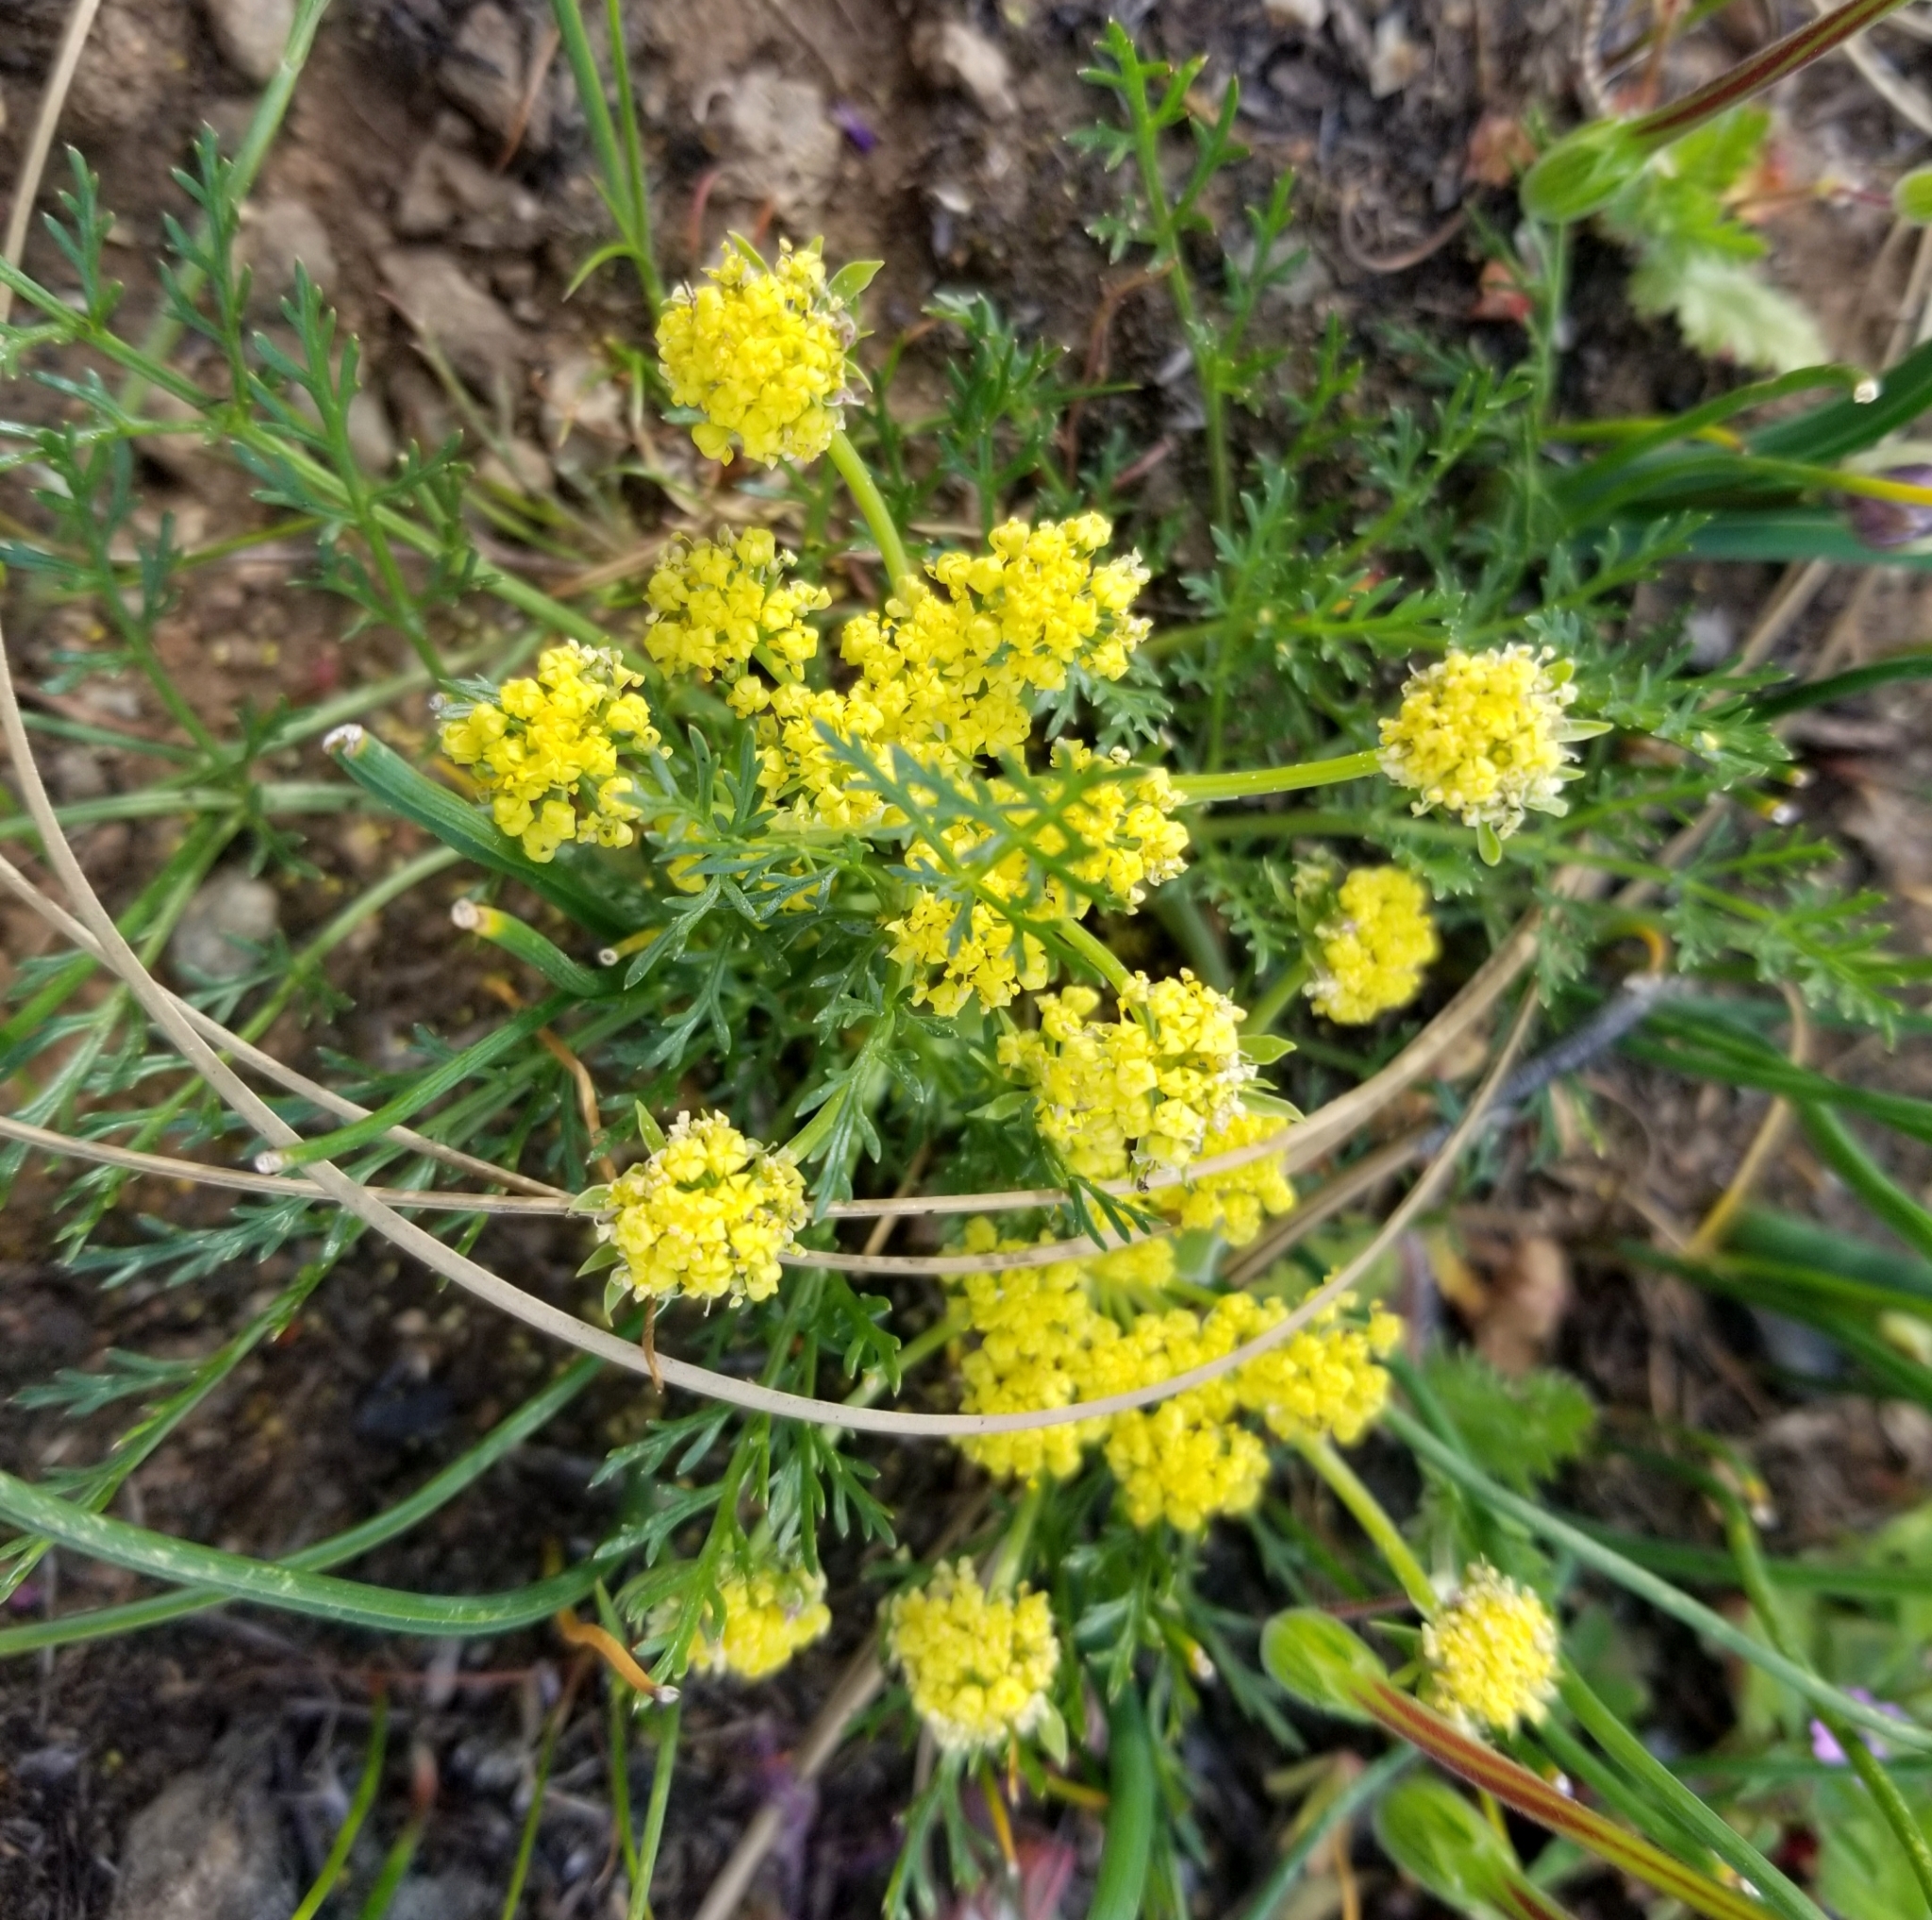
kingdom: Plantae
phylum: Tracheophyta
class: Magnoliopsida
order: Apiales
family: Apiaceae
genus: Lomatium
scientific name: Lomatium utriculatum
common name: Fine-leaf desert-parsley
